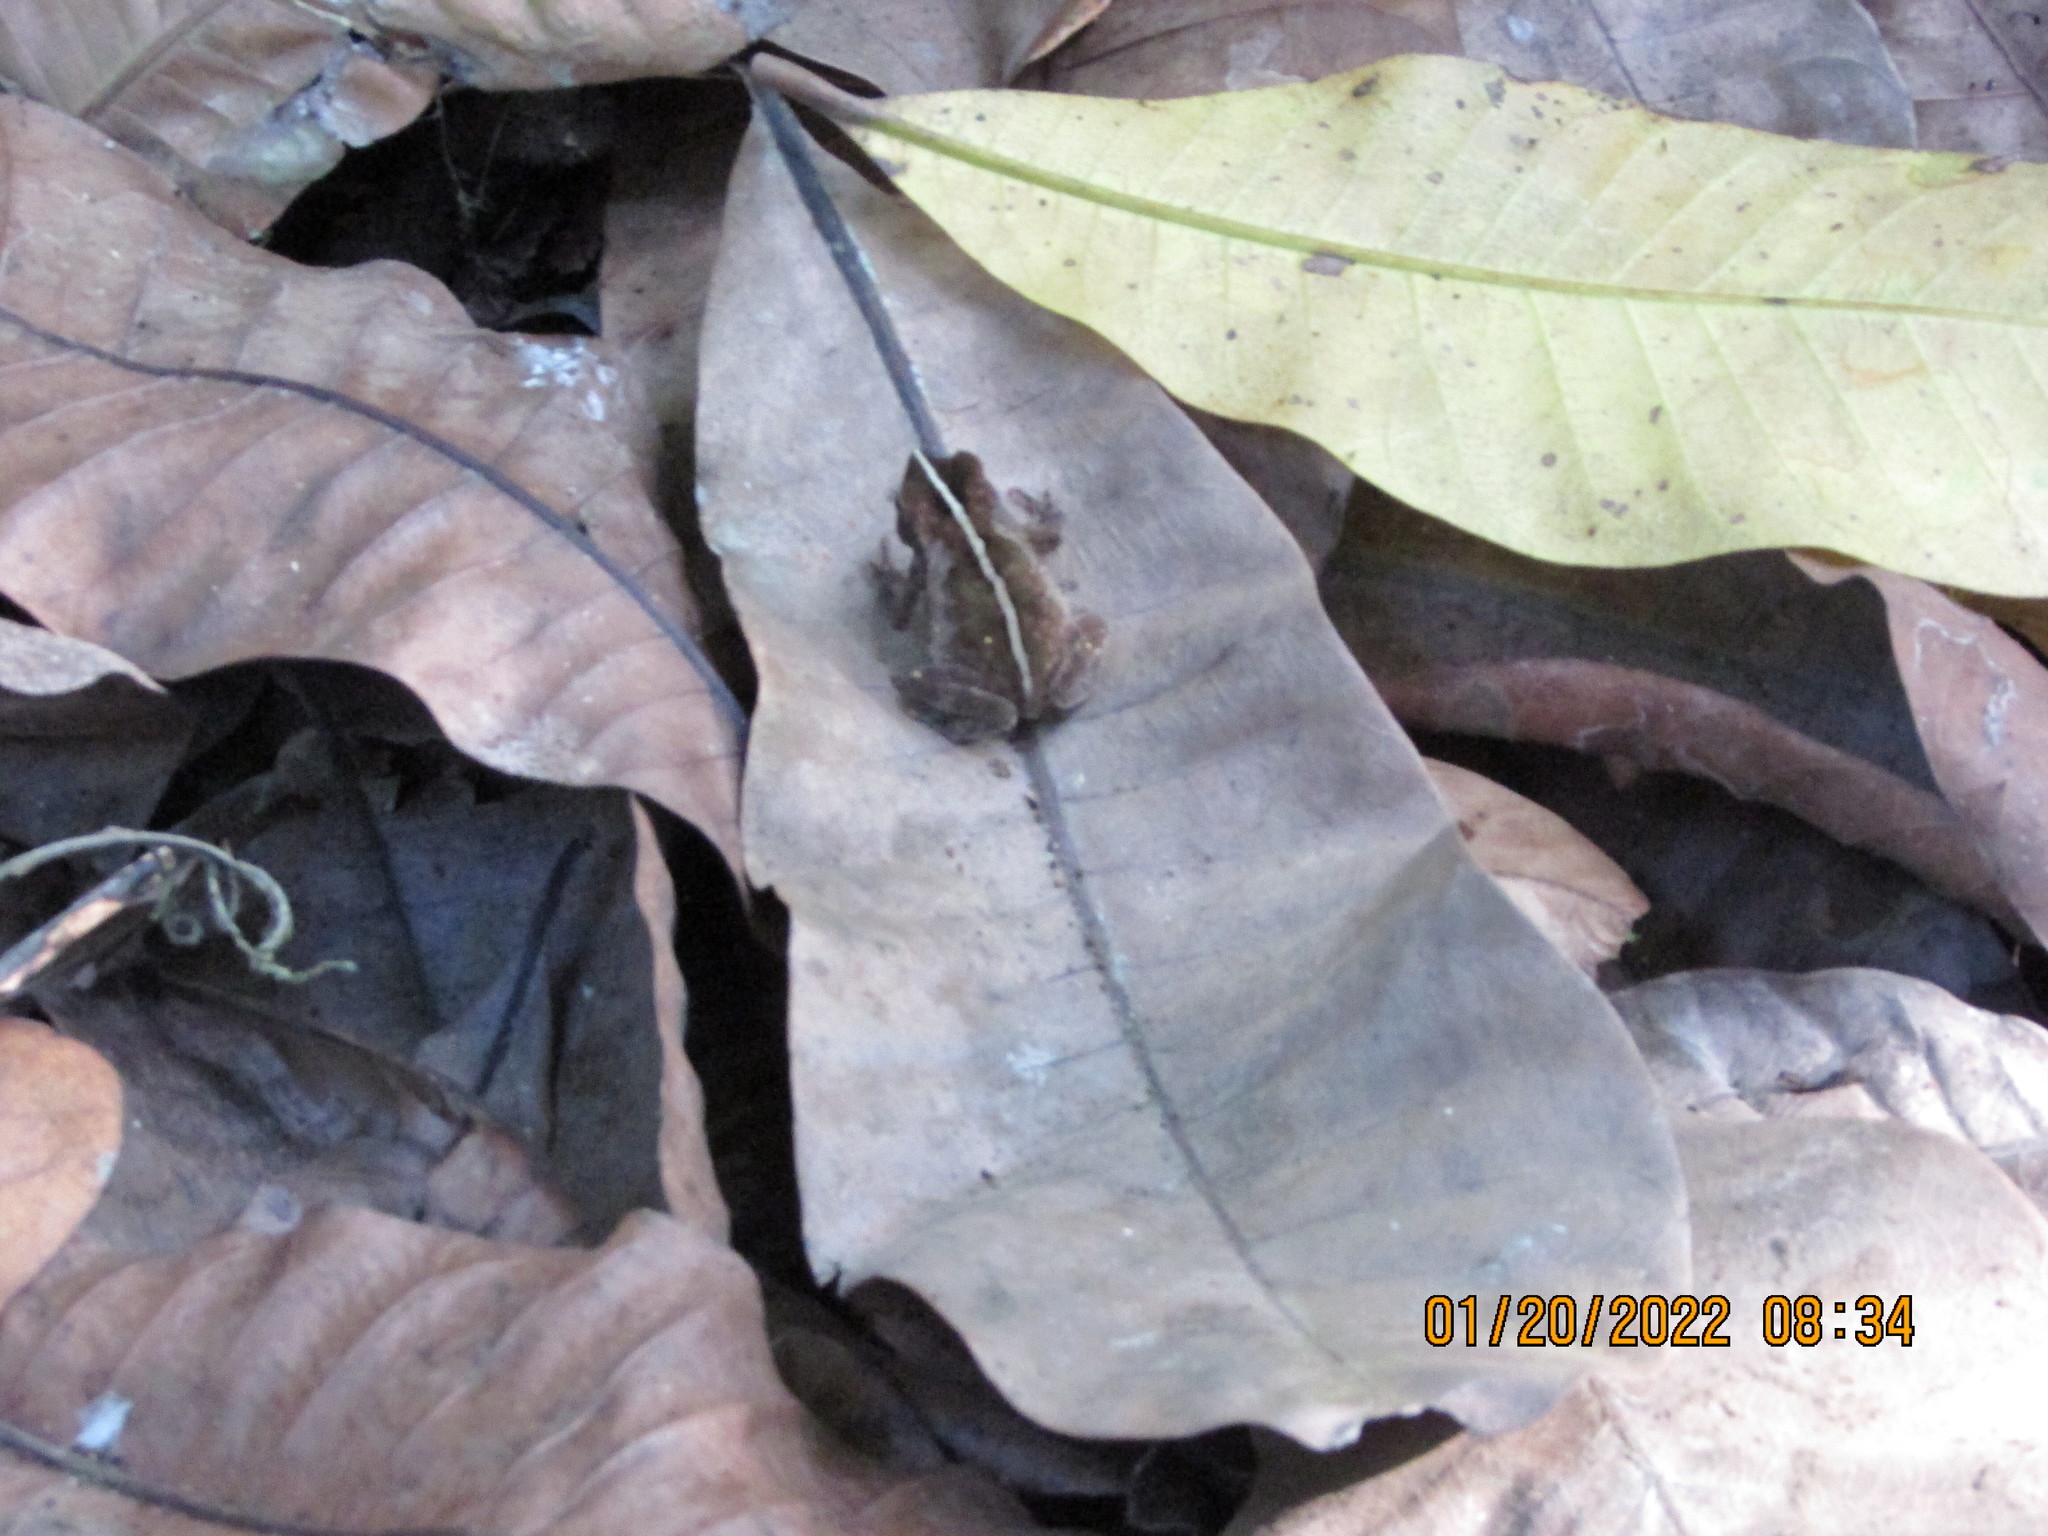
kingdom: Animalia
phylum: Chordata
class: Amphibia
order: Anura
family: Bufonidae
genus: Rhinella
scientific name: Rhinella alata
